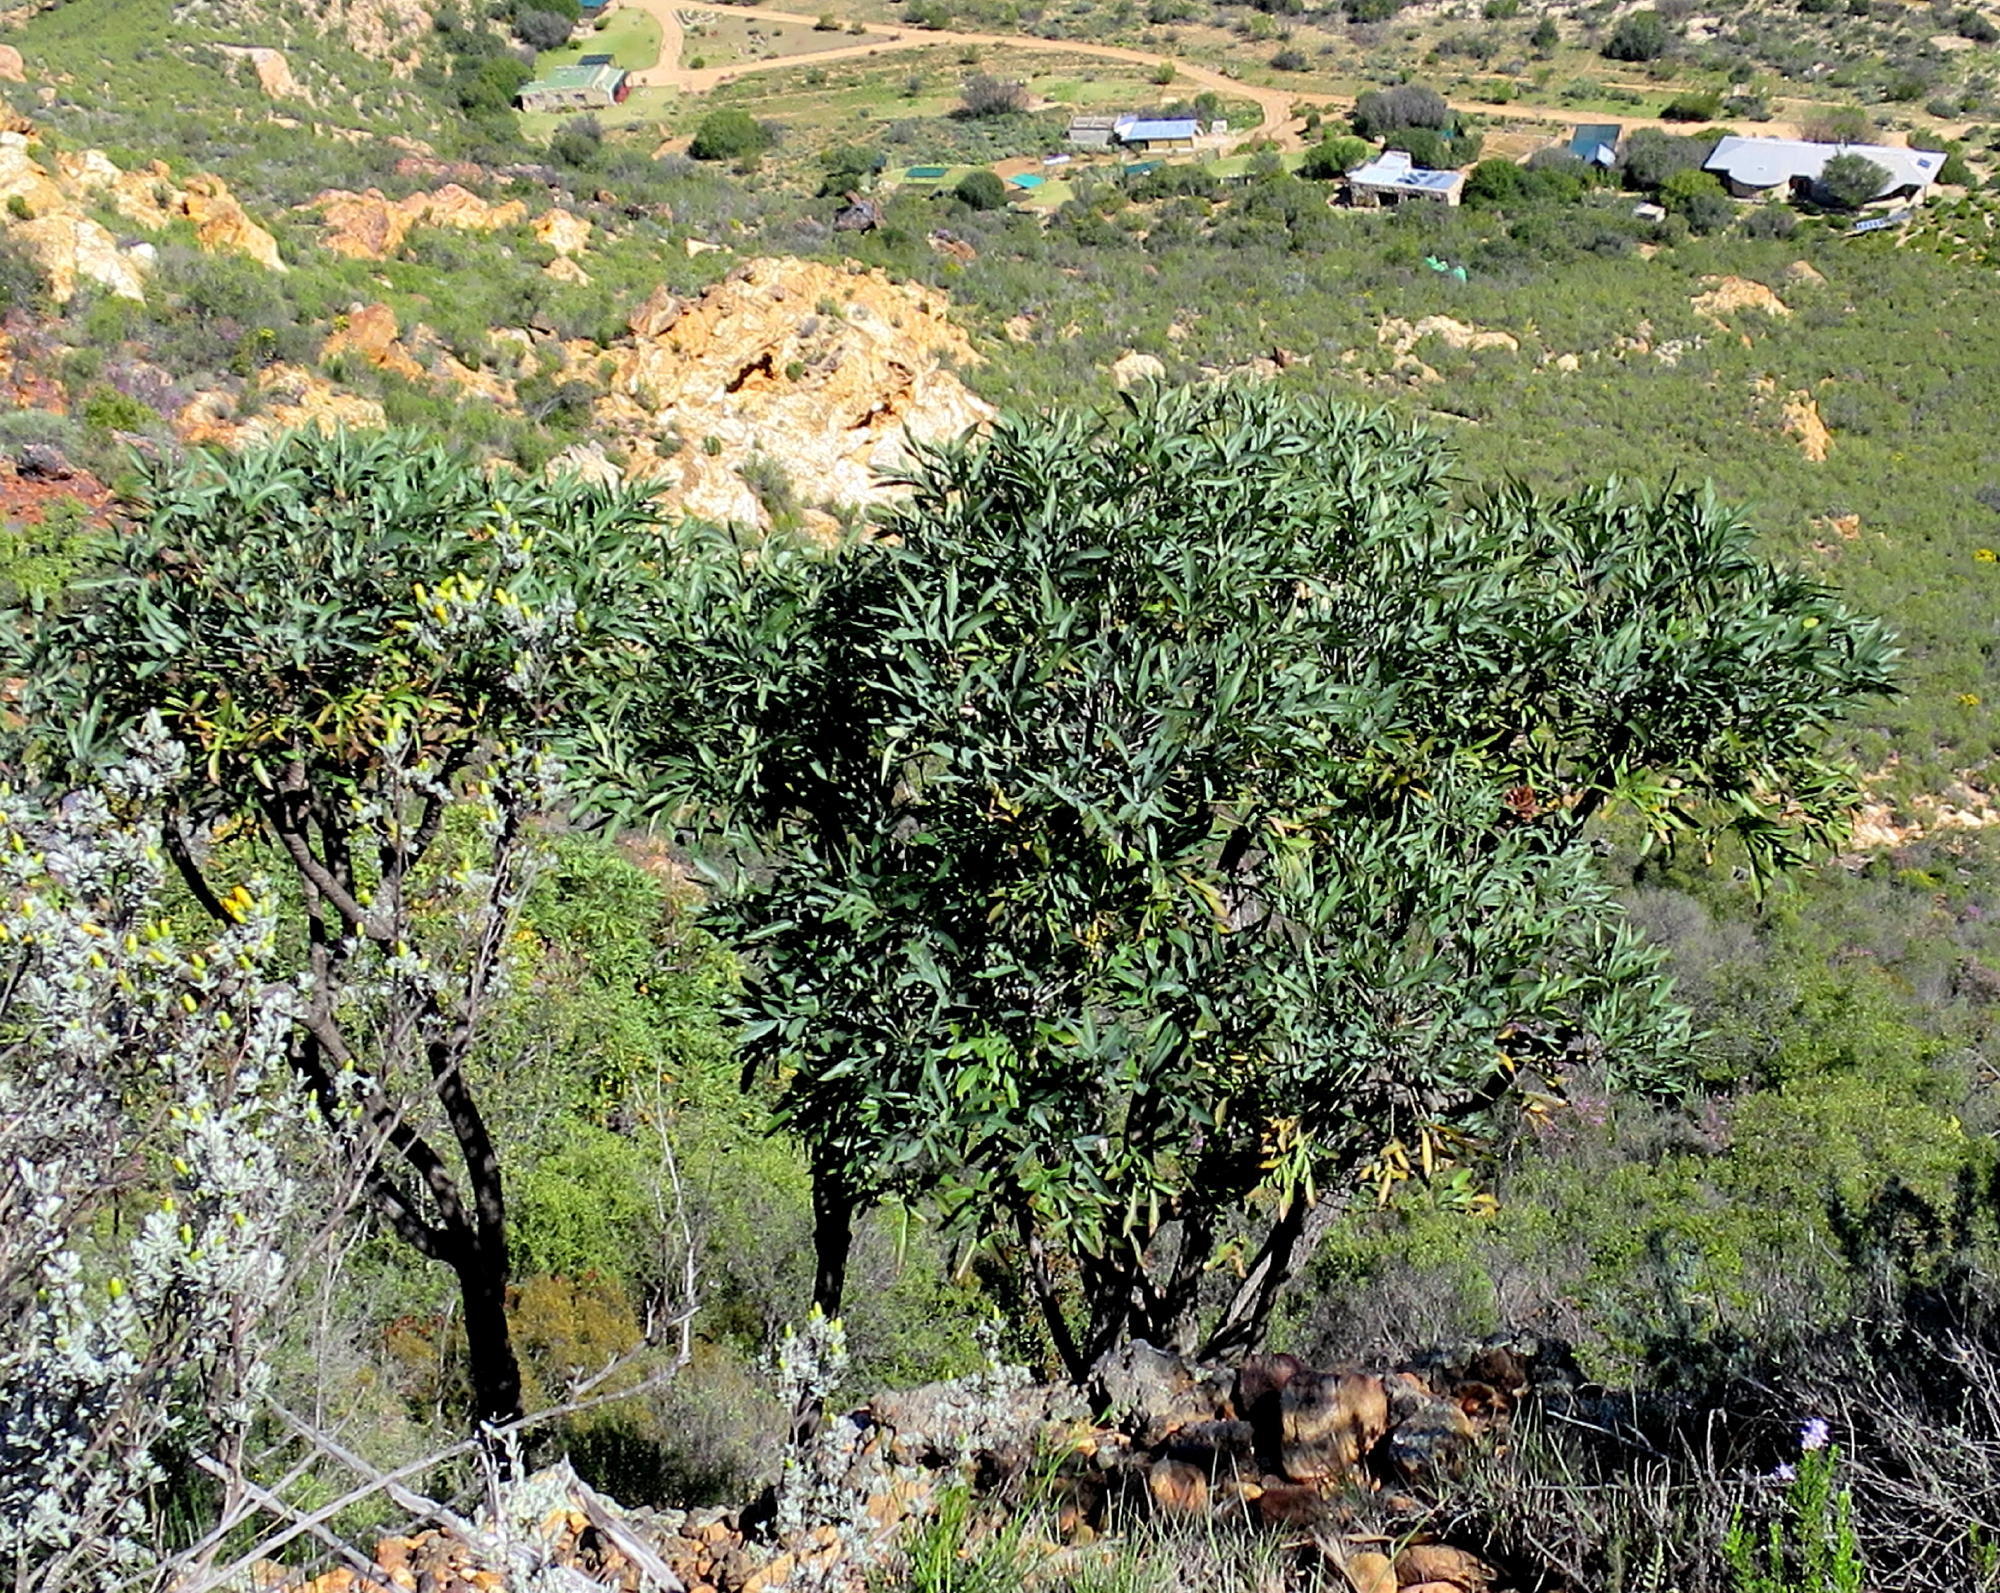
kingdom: Plantae
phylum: Tracheophyta
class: Magnoliopsida
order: Apiales
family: Araliaceae
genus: Cussonia
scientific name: Cussonia paniculata
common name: Cabbagetree
